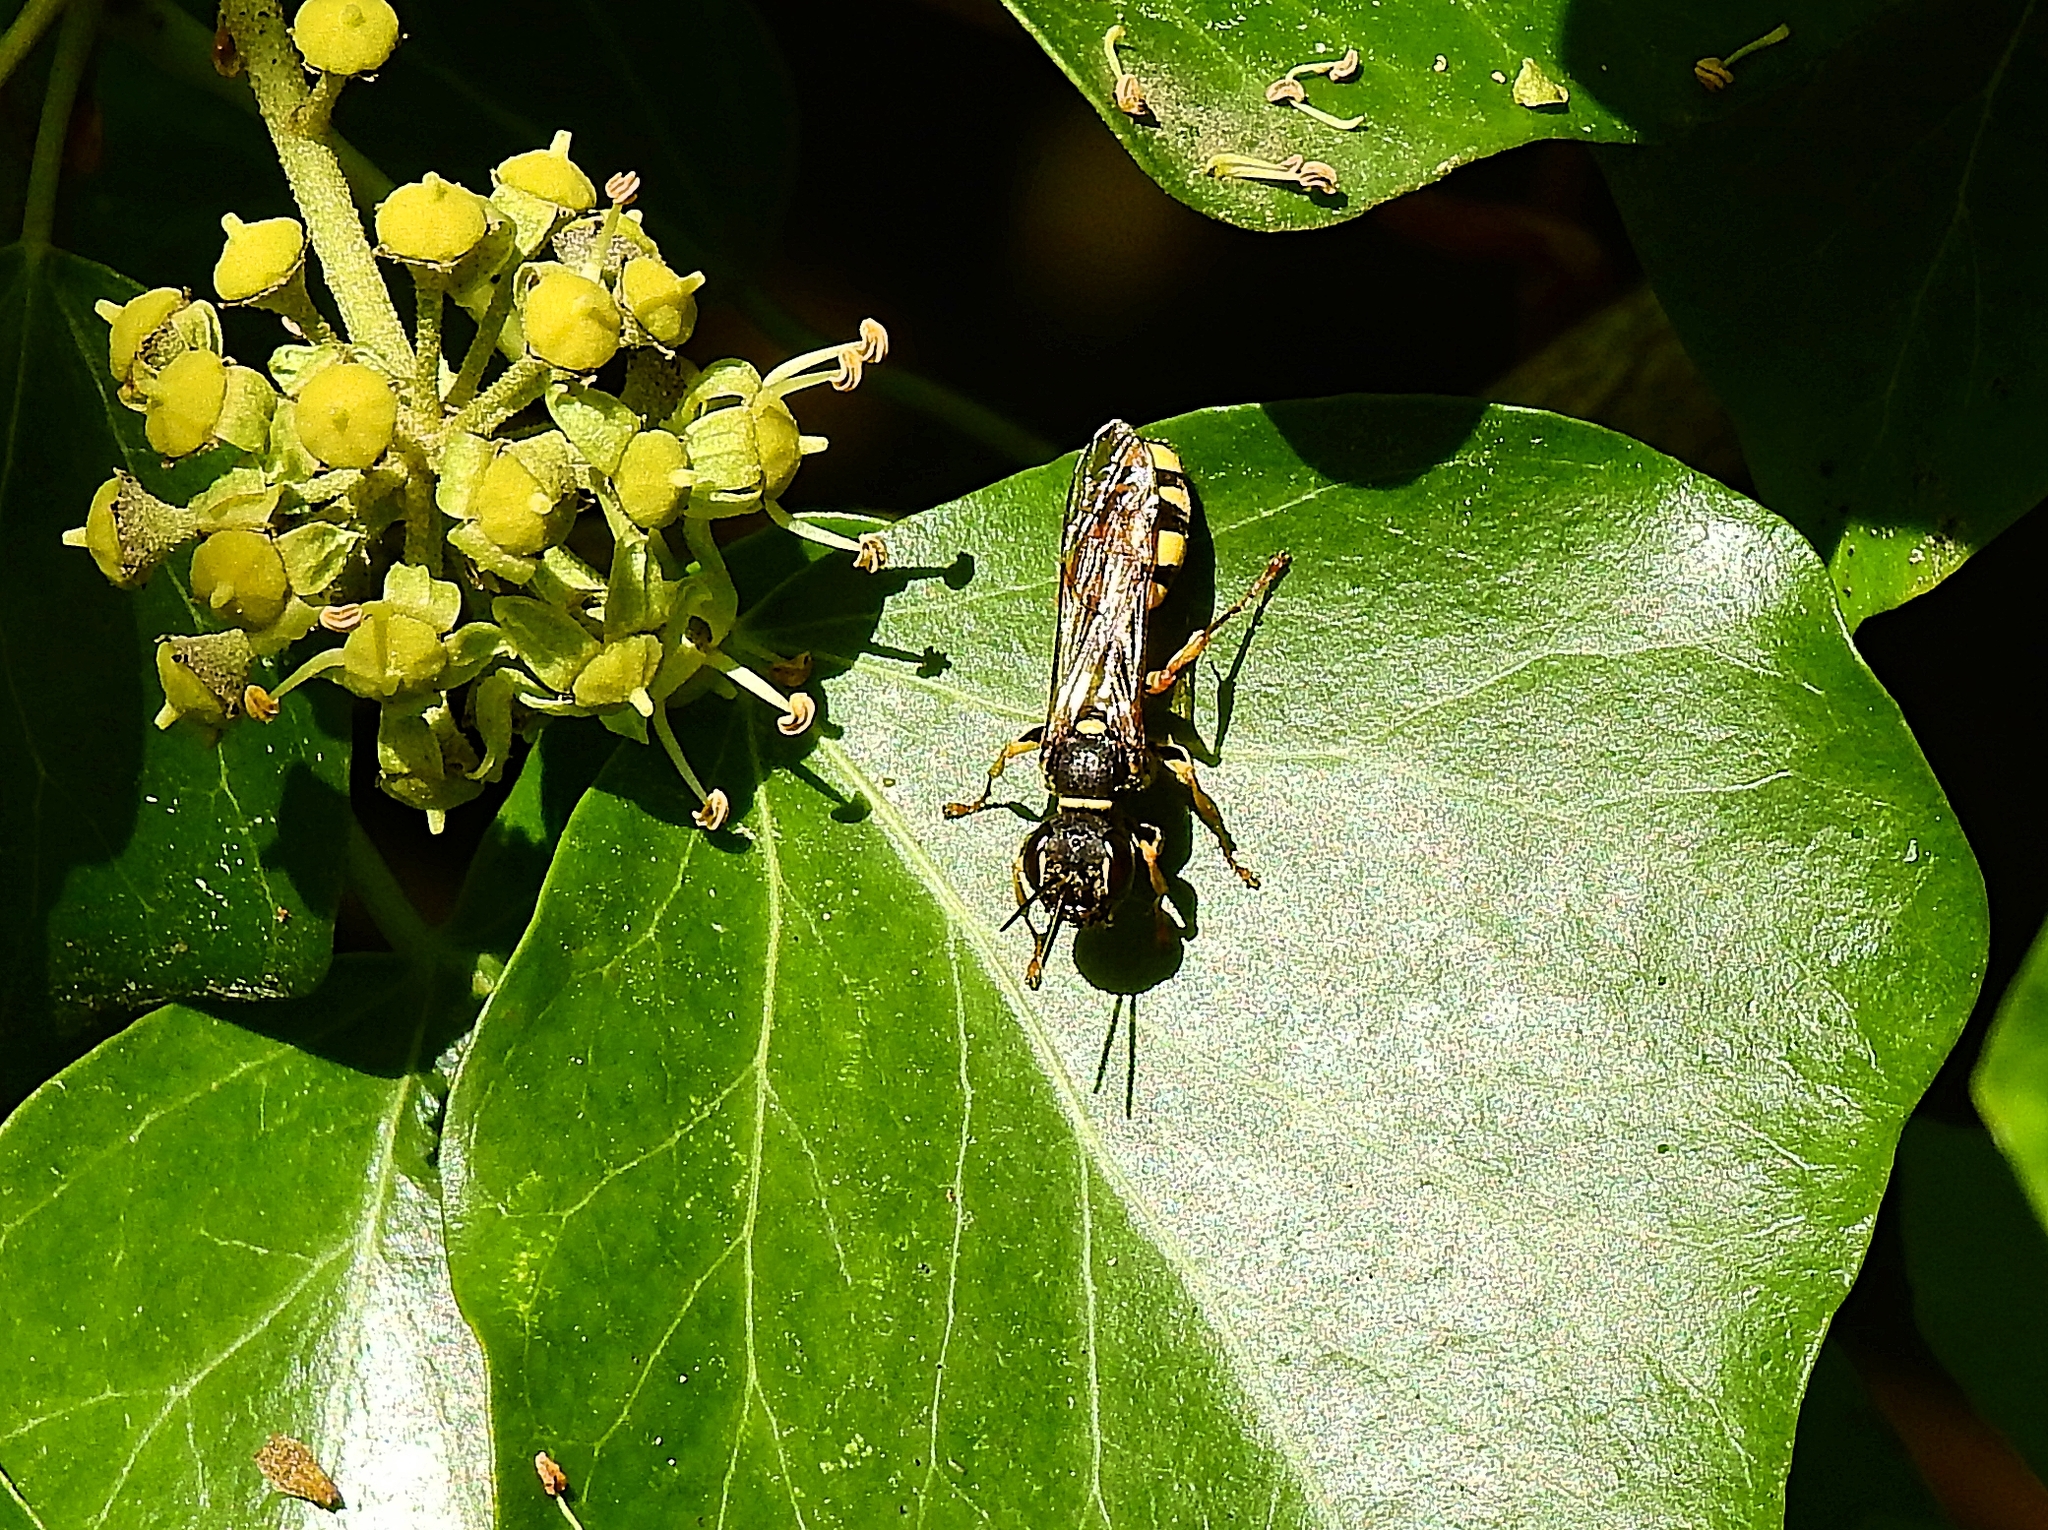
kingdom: Animalia
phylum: Arthropoda
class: Insecta
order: Hymenoptera
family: Crabronidae
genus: Mellinus
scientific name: Mellinus arvensis
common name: Field digger wasp
